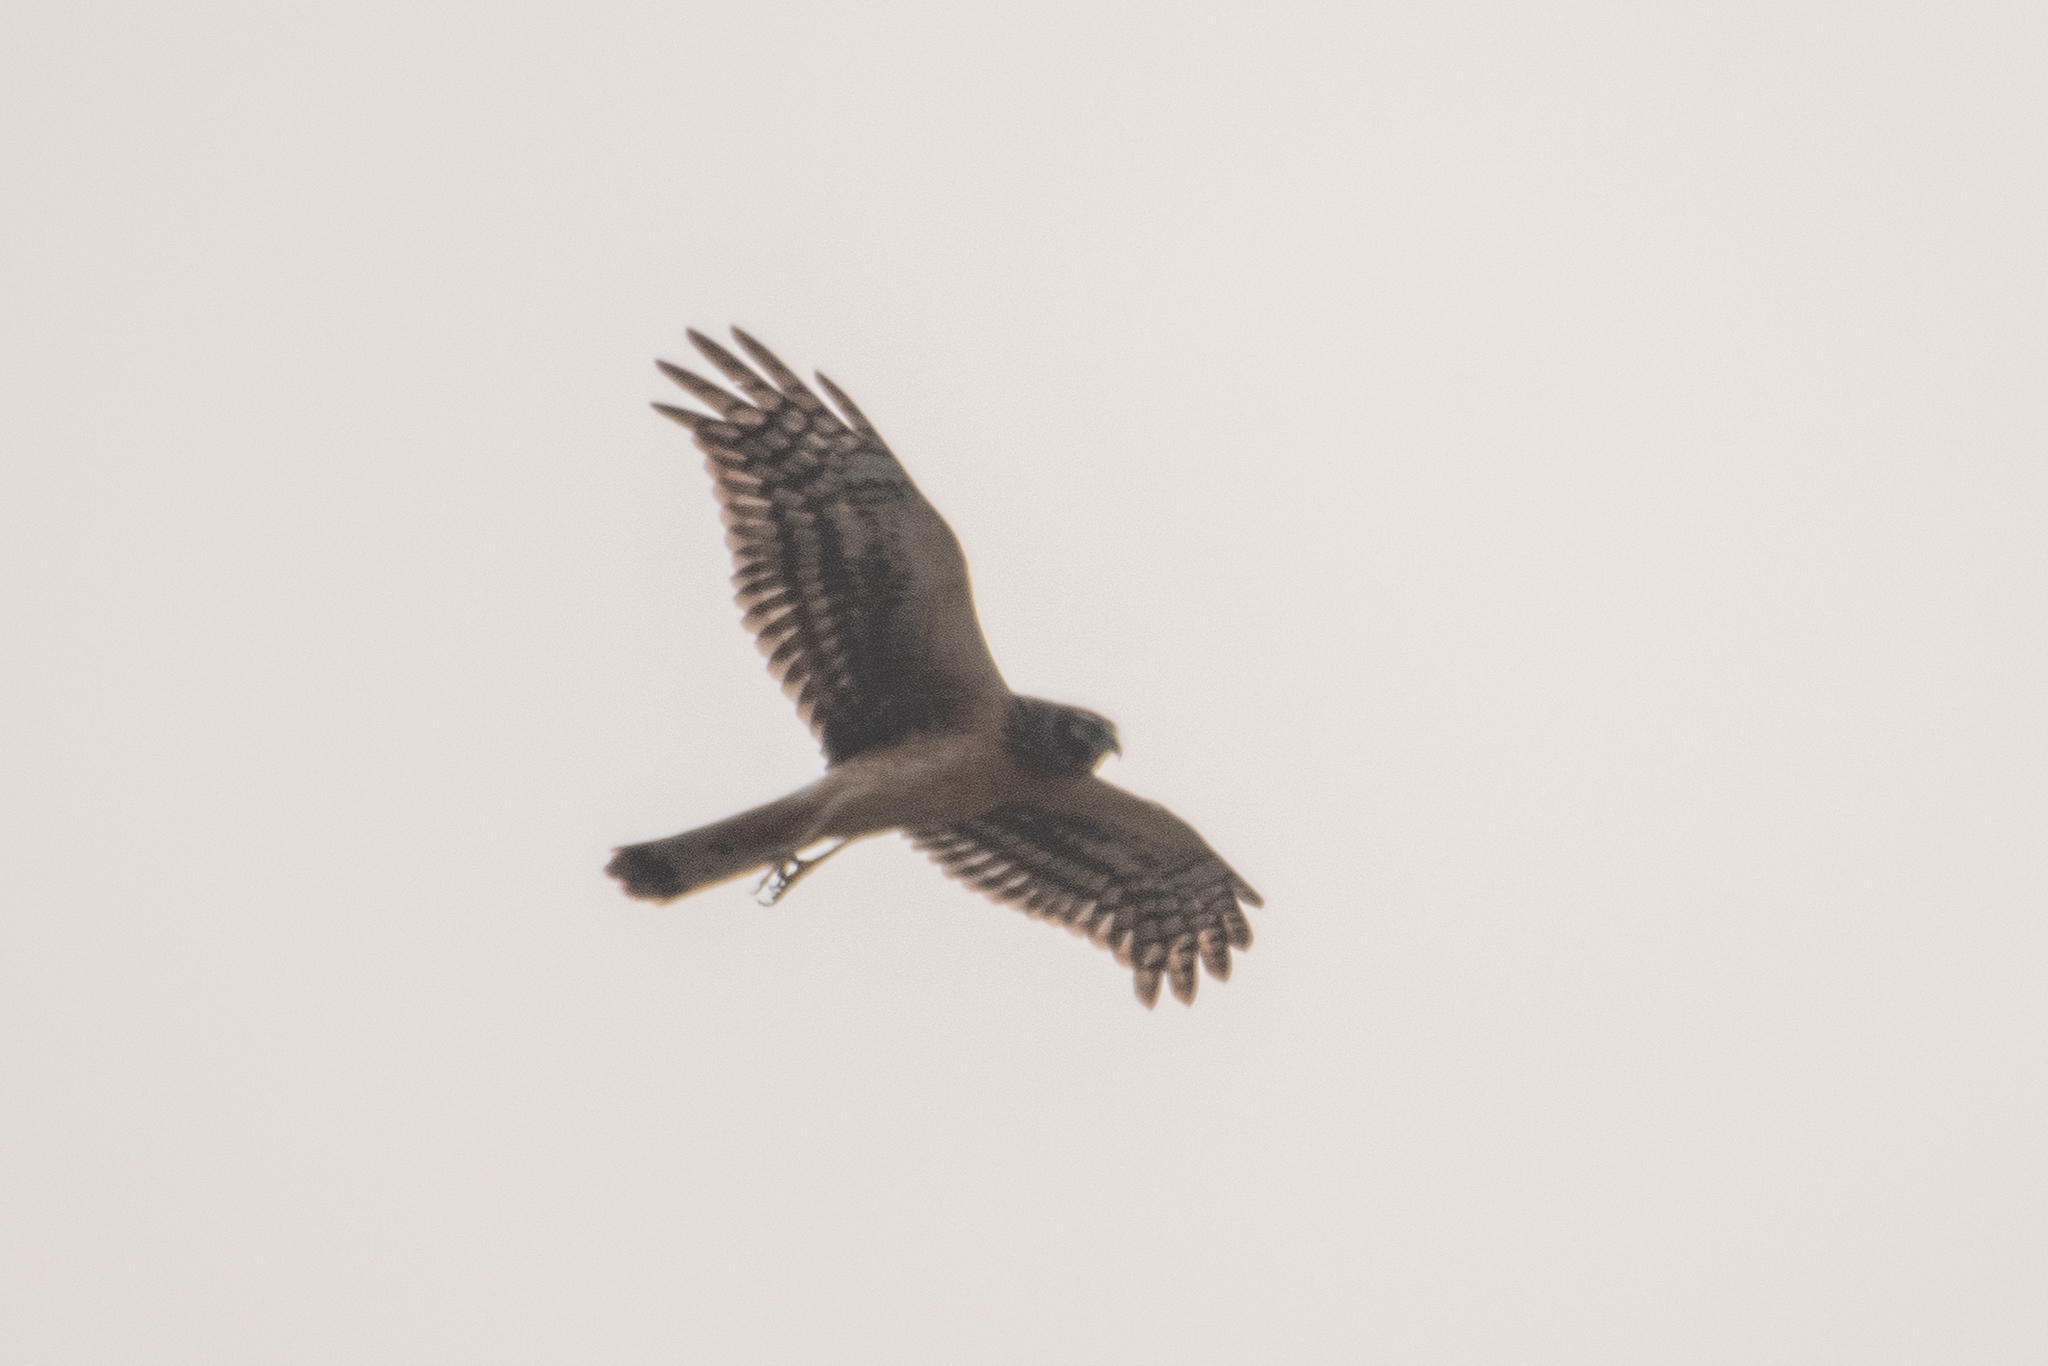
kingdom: Animalia
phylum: Chordata
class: Aves
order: Accipitriformes
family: Accipitridae
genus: Circus
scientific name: Circus cyaneus
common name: Hen harrier
